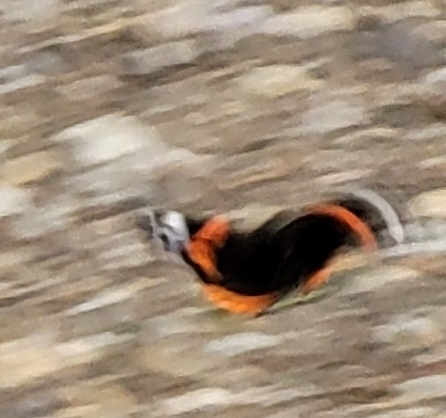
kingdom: Animalia
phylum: Arthropoda
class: Insecta
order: Lepidoptera
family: Nymphalidae
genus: Vanessa
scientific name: Vanessa atalanta
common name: Red admiral
